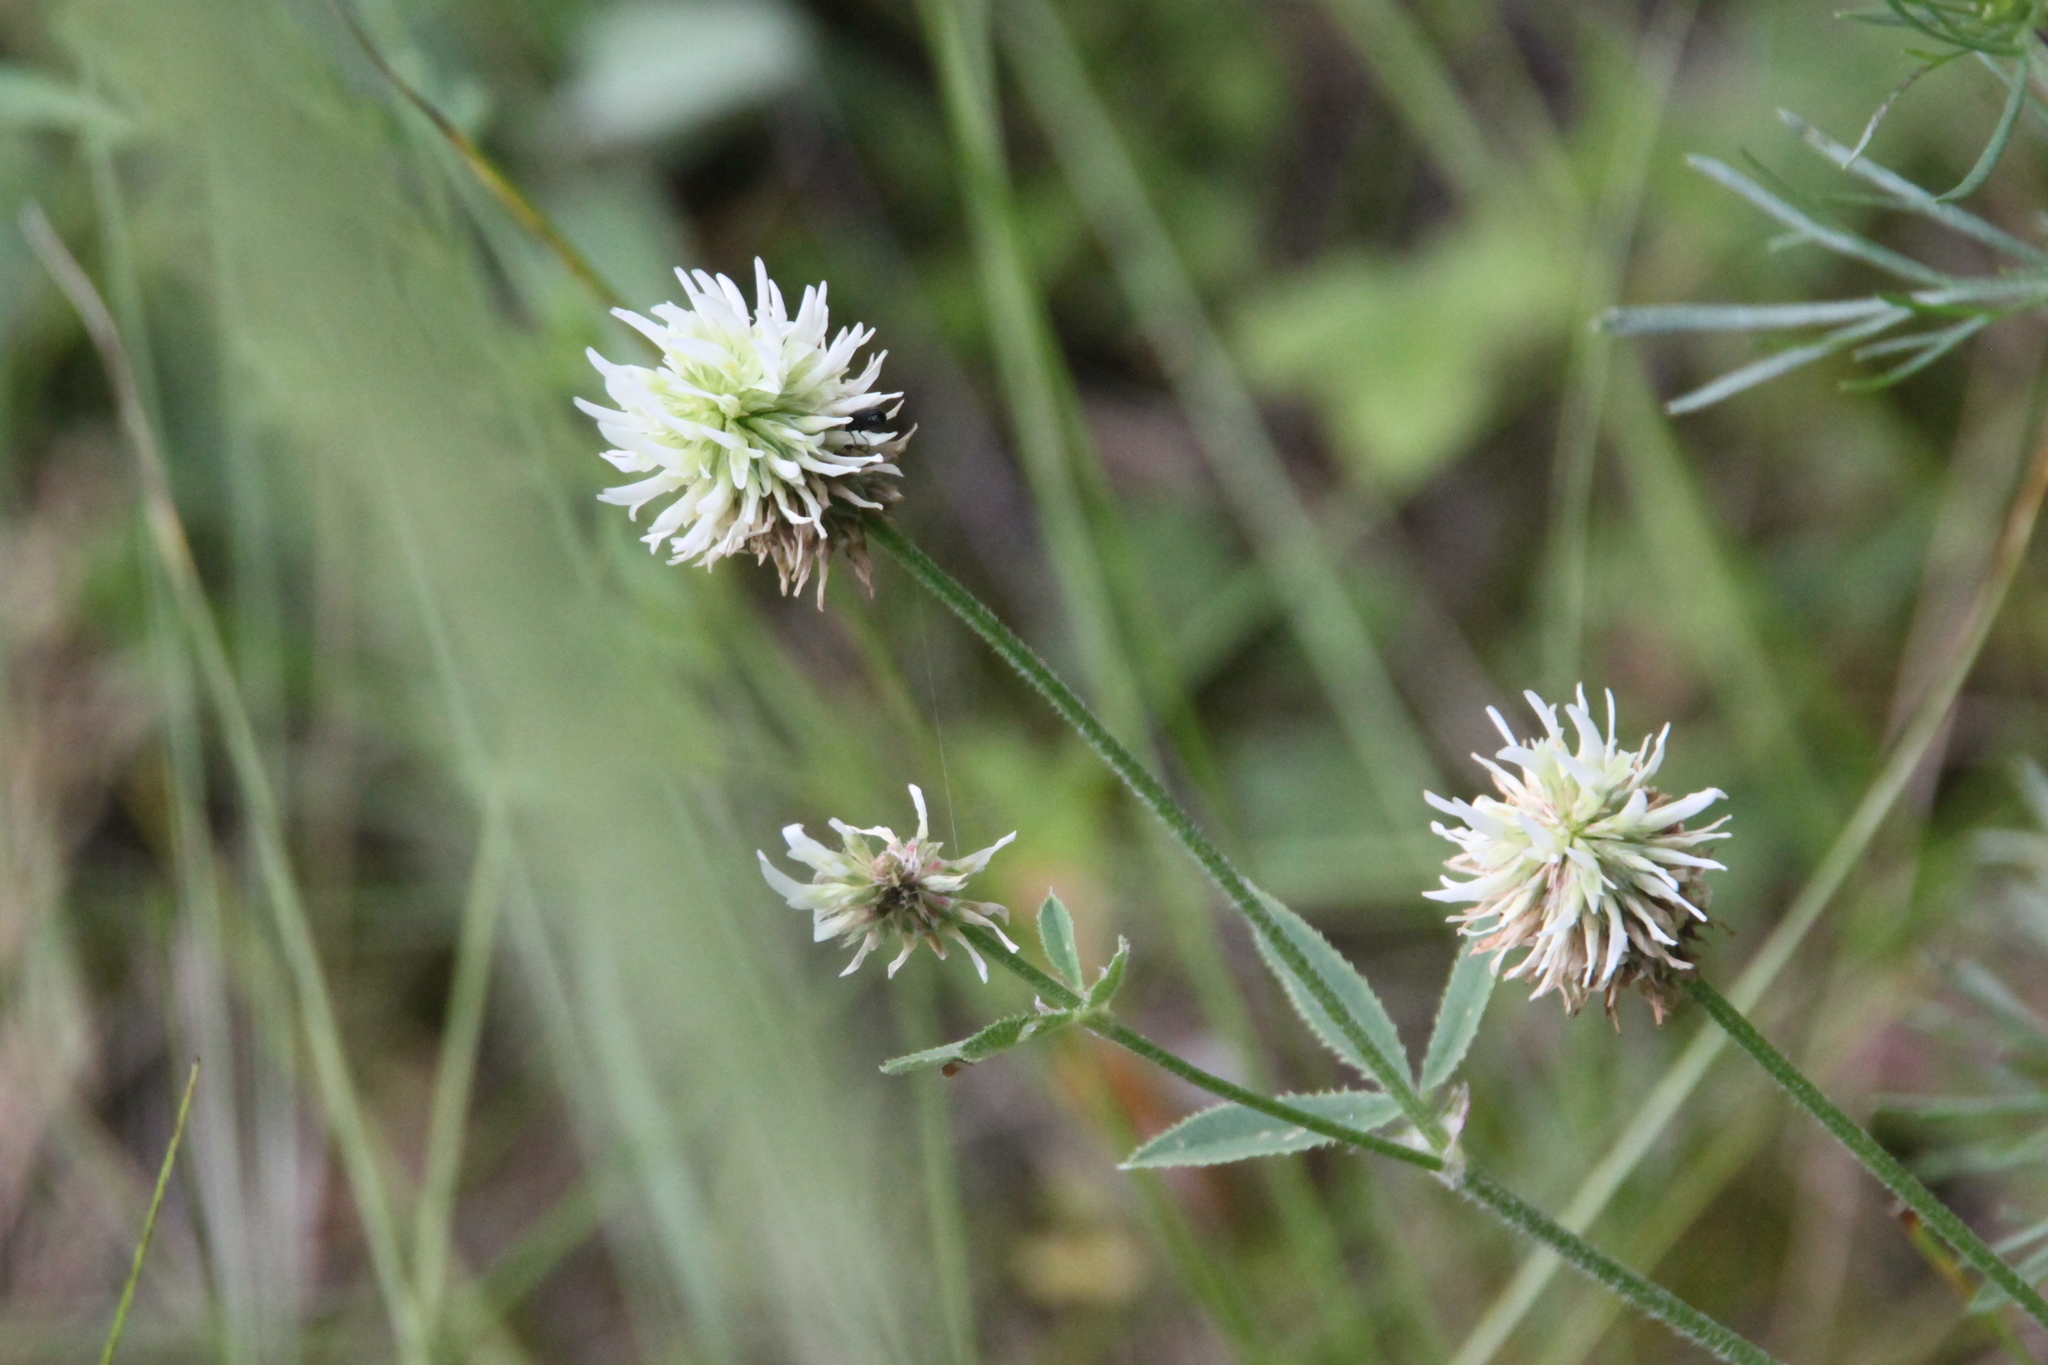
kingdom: Plantae
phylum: Tracheophyta
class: Magnoliopsida
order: Fabales
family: Fabaceae
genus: Trifolium
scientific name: Trifolium montanum
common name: Mountain clover
